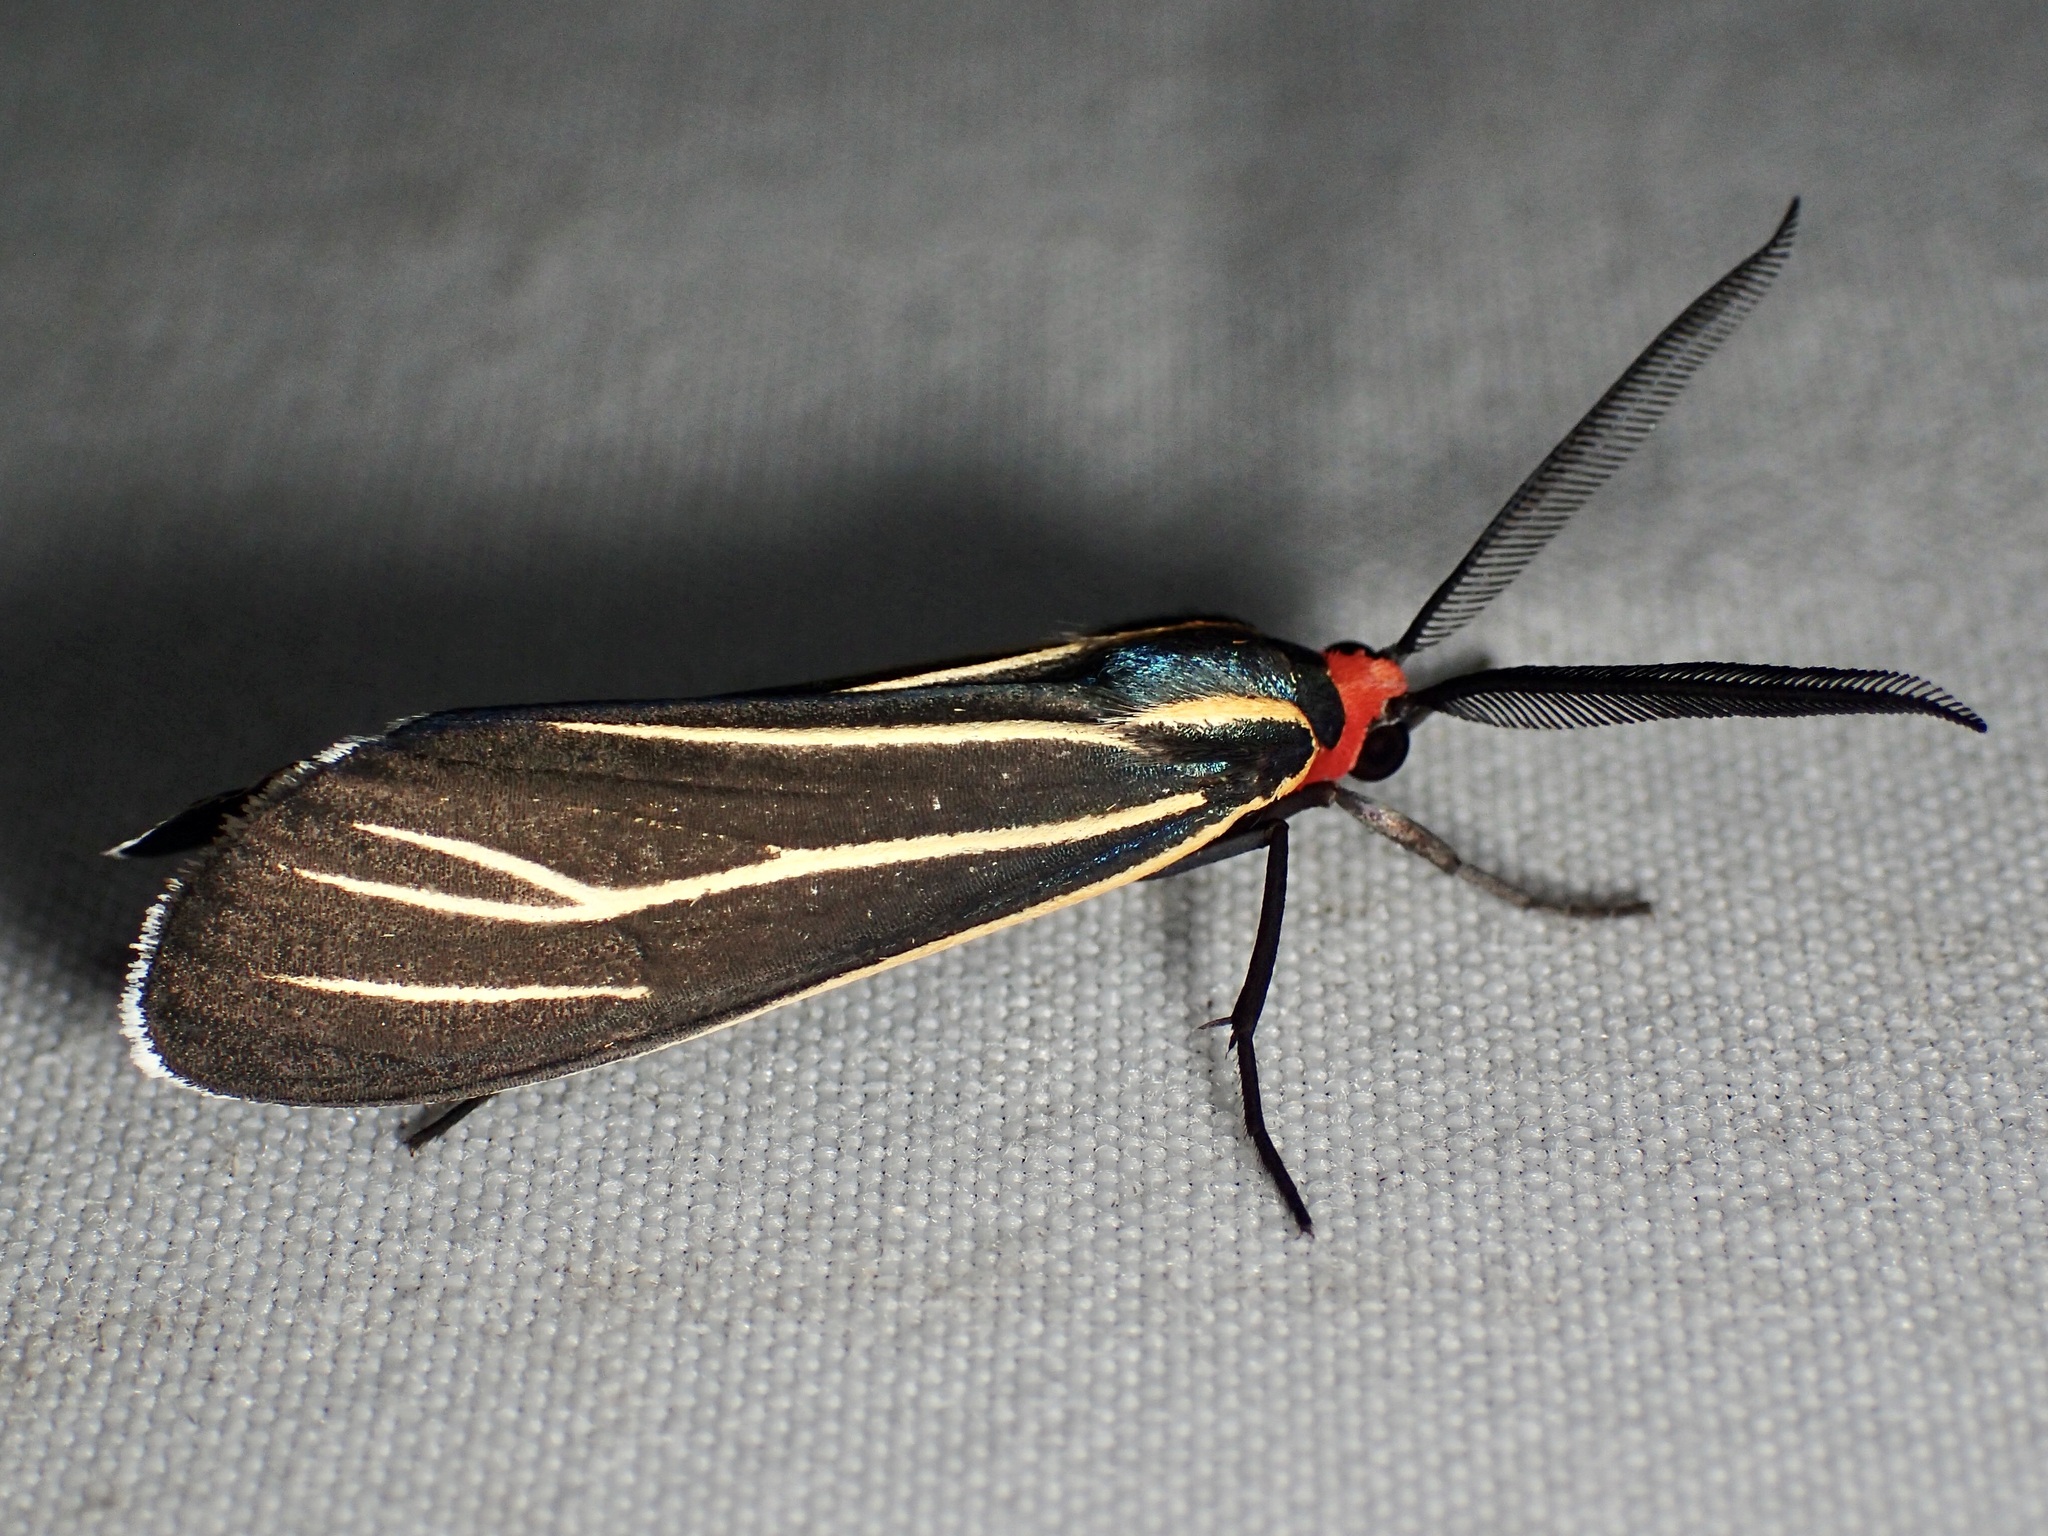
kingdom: Animalia
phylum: Arthropoda
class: Insecta
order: Lepidoptera
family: Erebidae
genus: Ctenucha
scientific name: Ctenucha venosa
